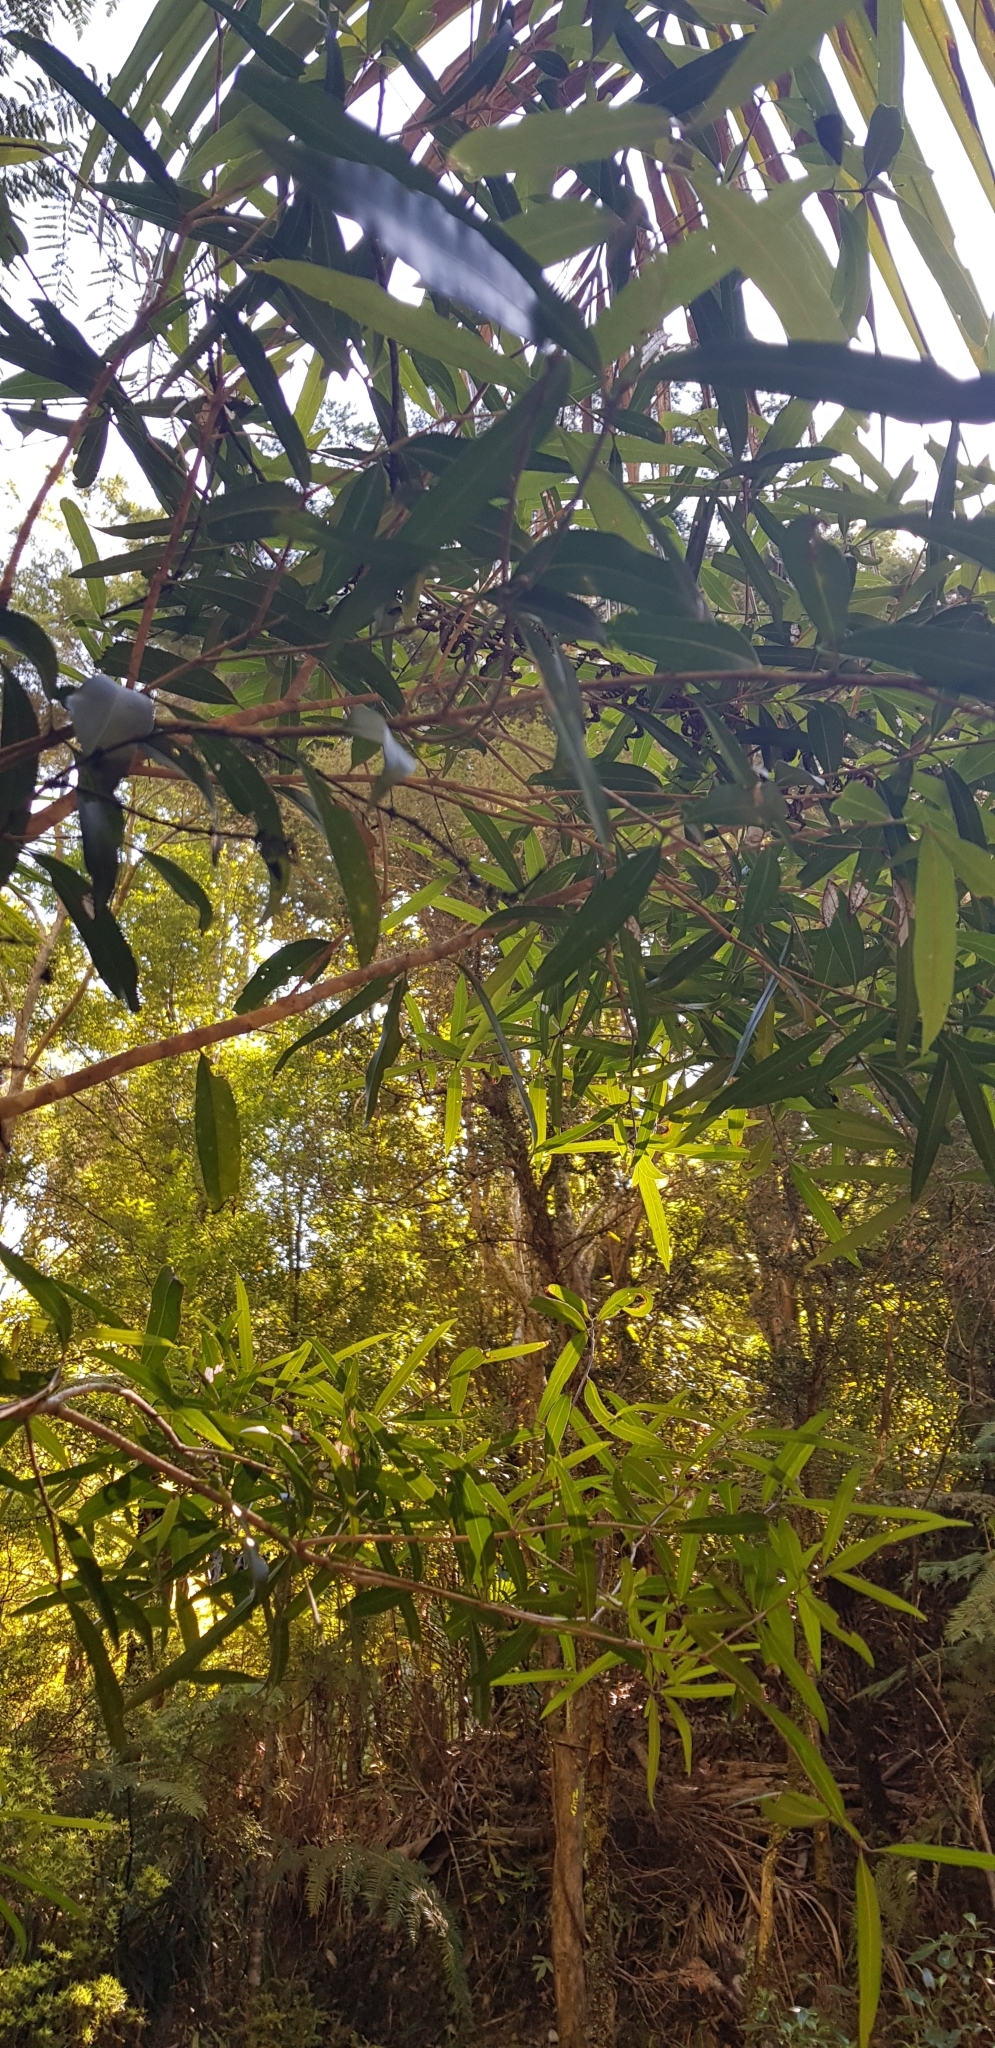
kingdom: Plantae
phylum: Tracheophyta
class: Magnoliopsida
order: Lamiales
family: Oleaceae
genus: Nestegis
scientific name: Nestegis lanceolata
